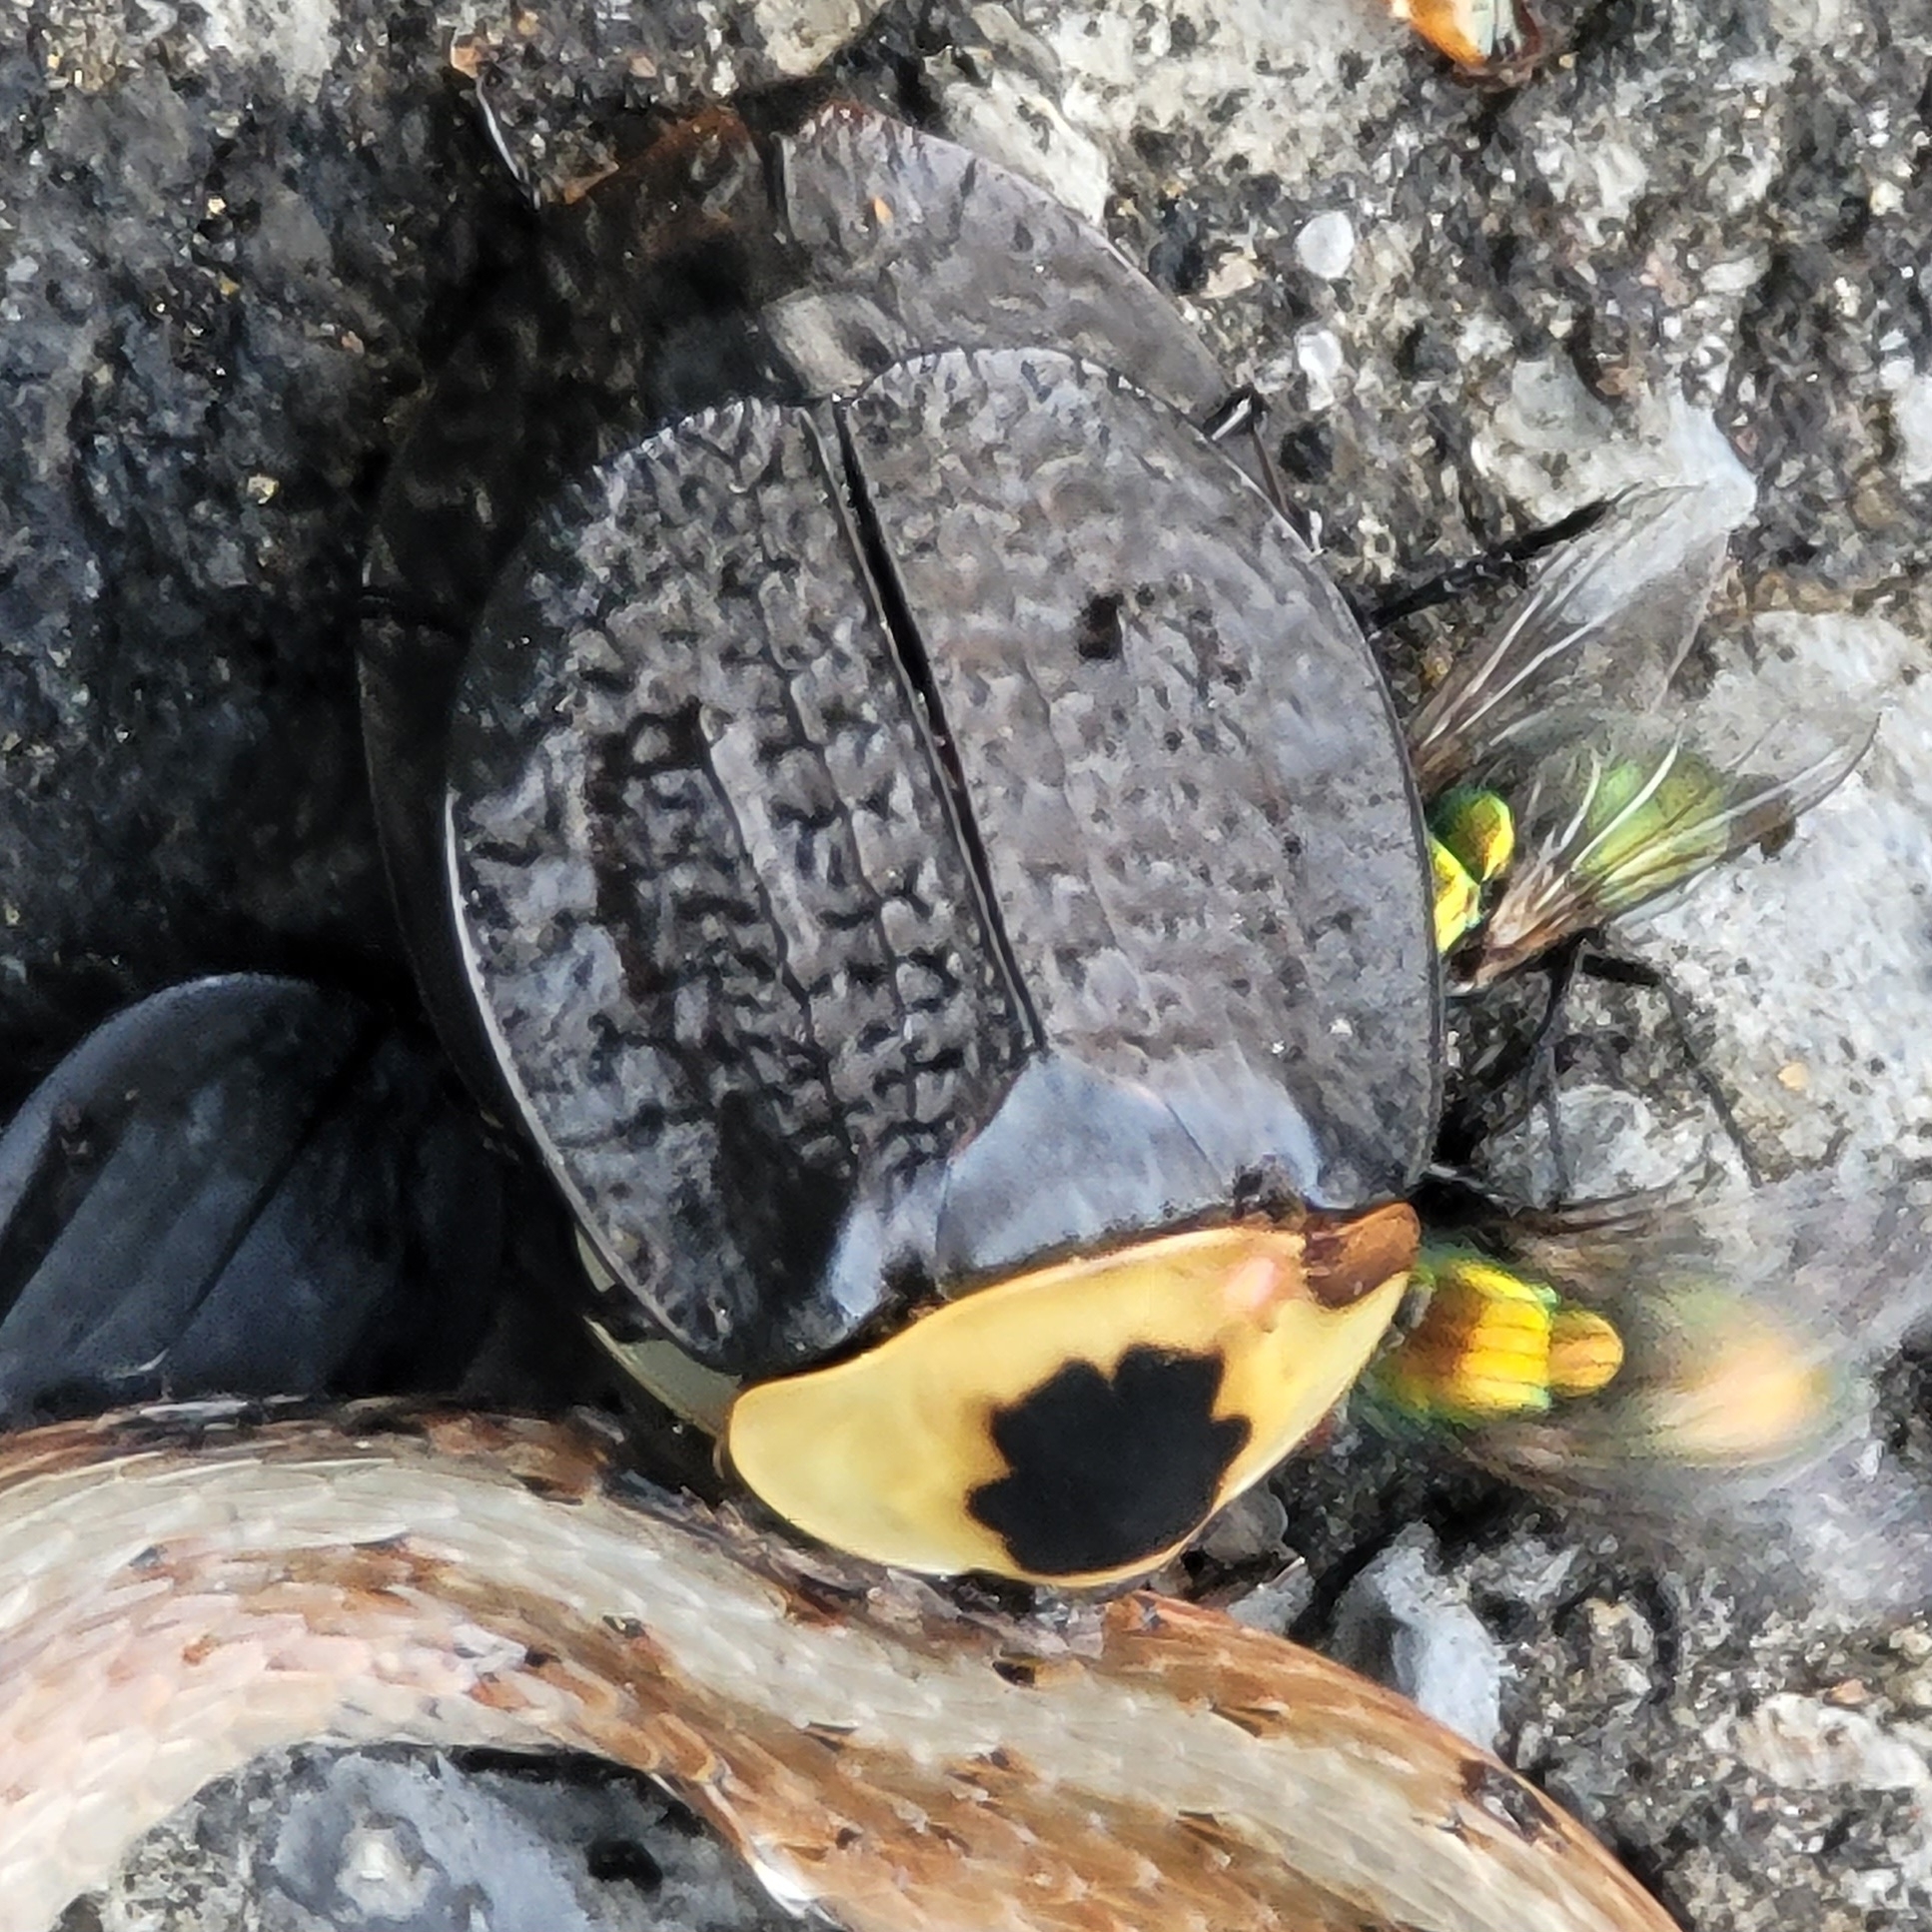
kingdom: Animalia
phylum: Arthropoda
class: Insecta
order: Coleoptera
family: Staphylinidae
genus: Necrophila
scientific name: Necrophila americana
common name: American carrion beetle
